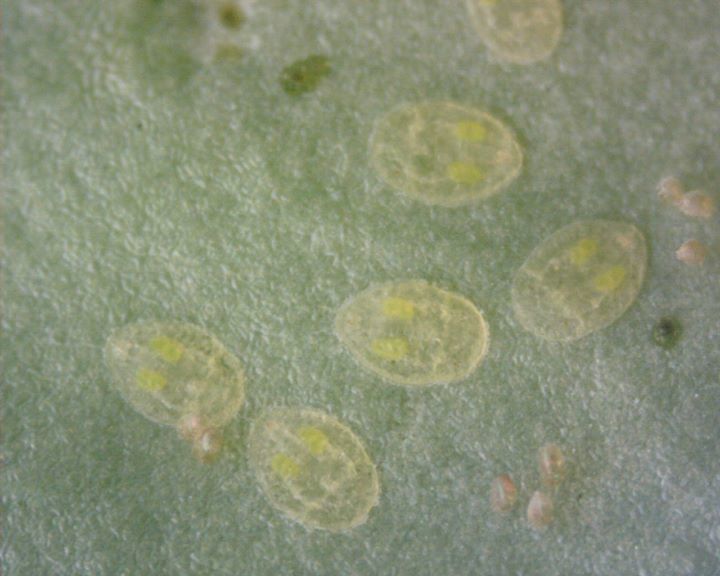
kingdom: Animalia
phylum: Arthropoda
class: Insecta
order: Hemiptera
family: Aleyrodidae
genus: Bemisia
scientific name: Bemisia tabaci
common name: Sweetpotato whitefly
